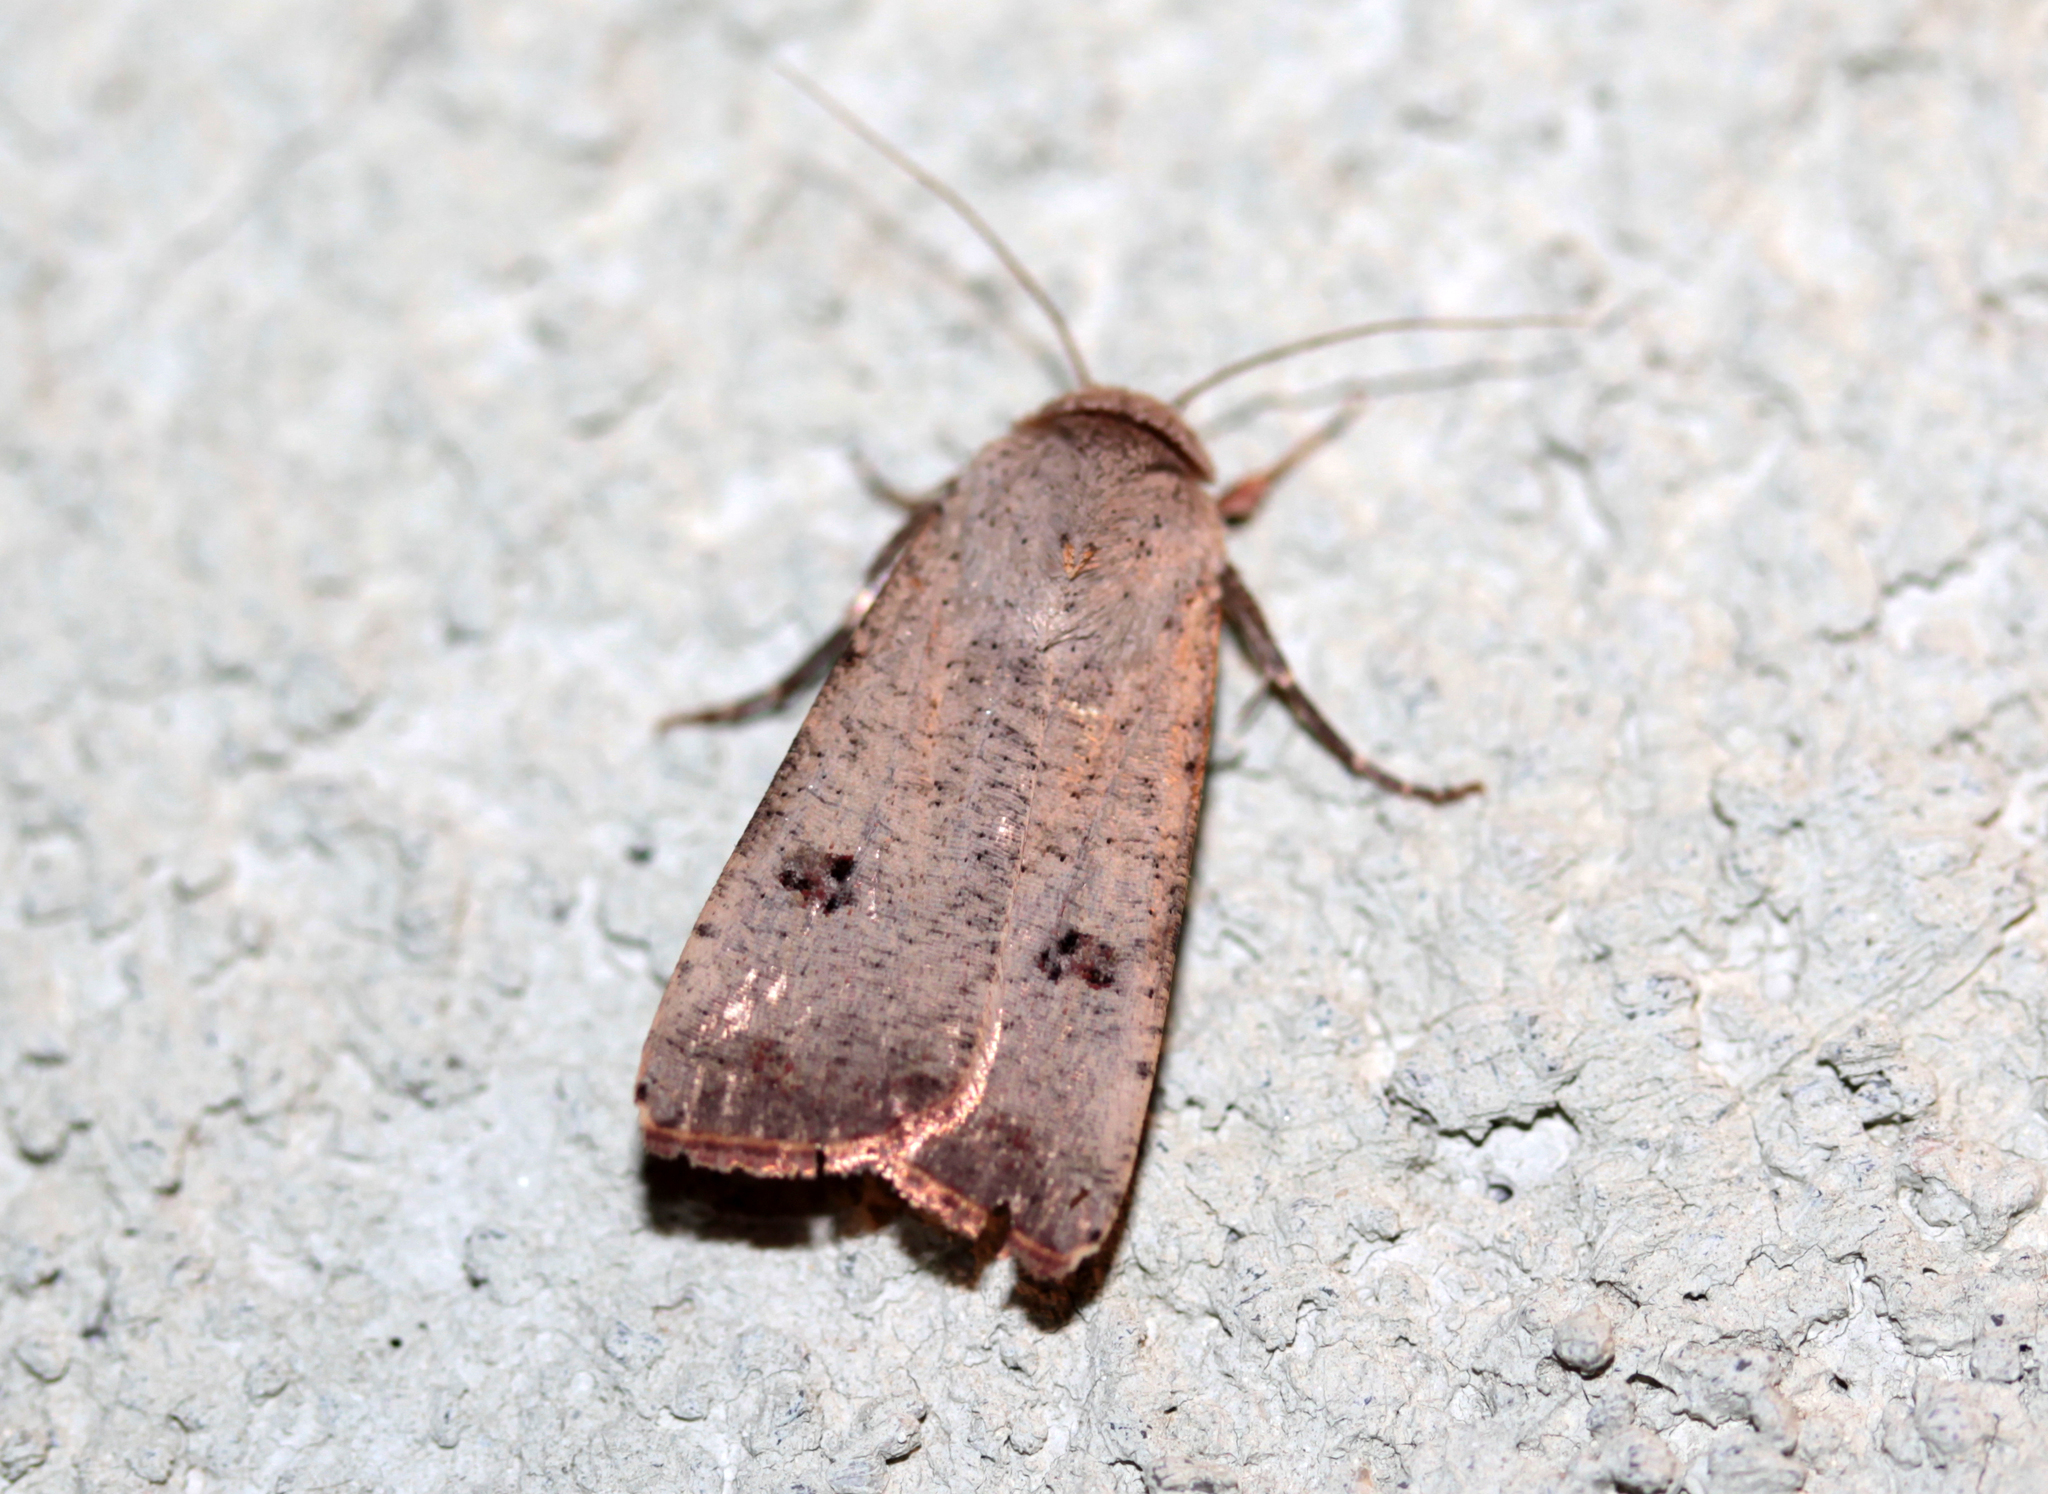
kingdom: Animalia
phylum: Arthropoda
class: Insecta
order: Lepidoptera
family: Noctuidae
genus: Anicla
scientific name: Anicla infecta
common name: Green cutworm
